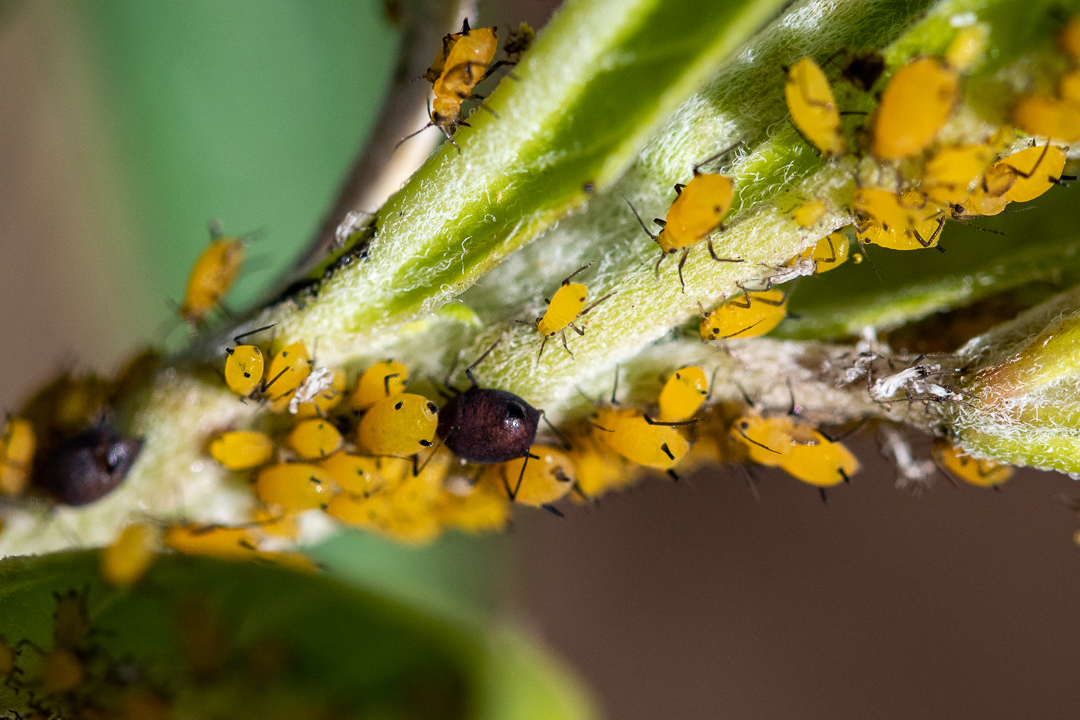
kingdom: Animalia
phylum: Arthropoda
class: Insecta
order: Hemiptera
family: Aphididae
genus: Aphis
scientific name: Aphis nerii
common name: Oleander aphid
